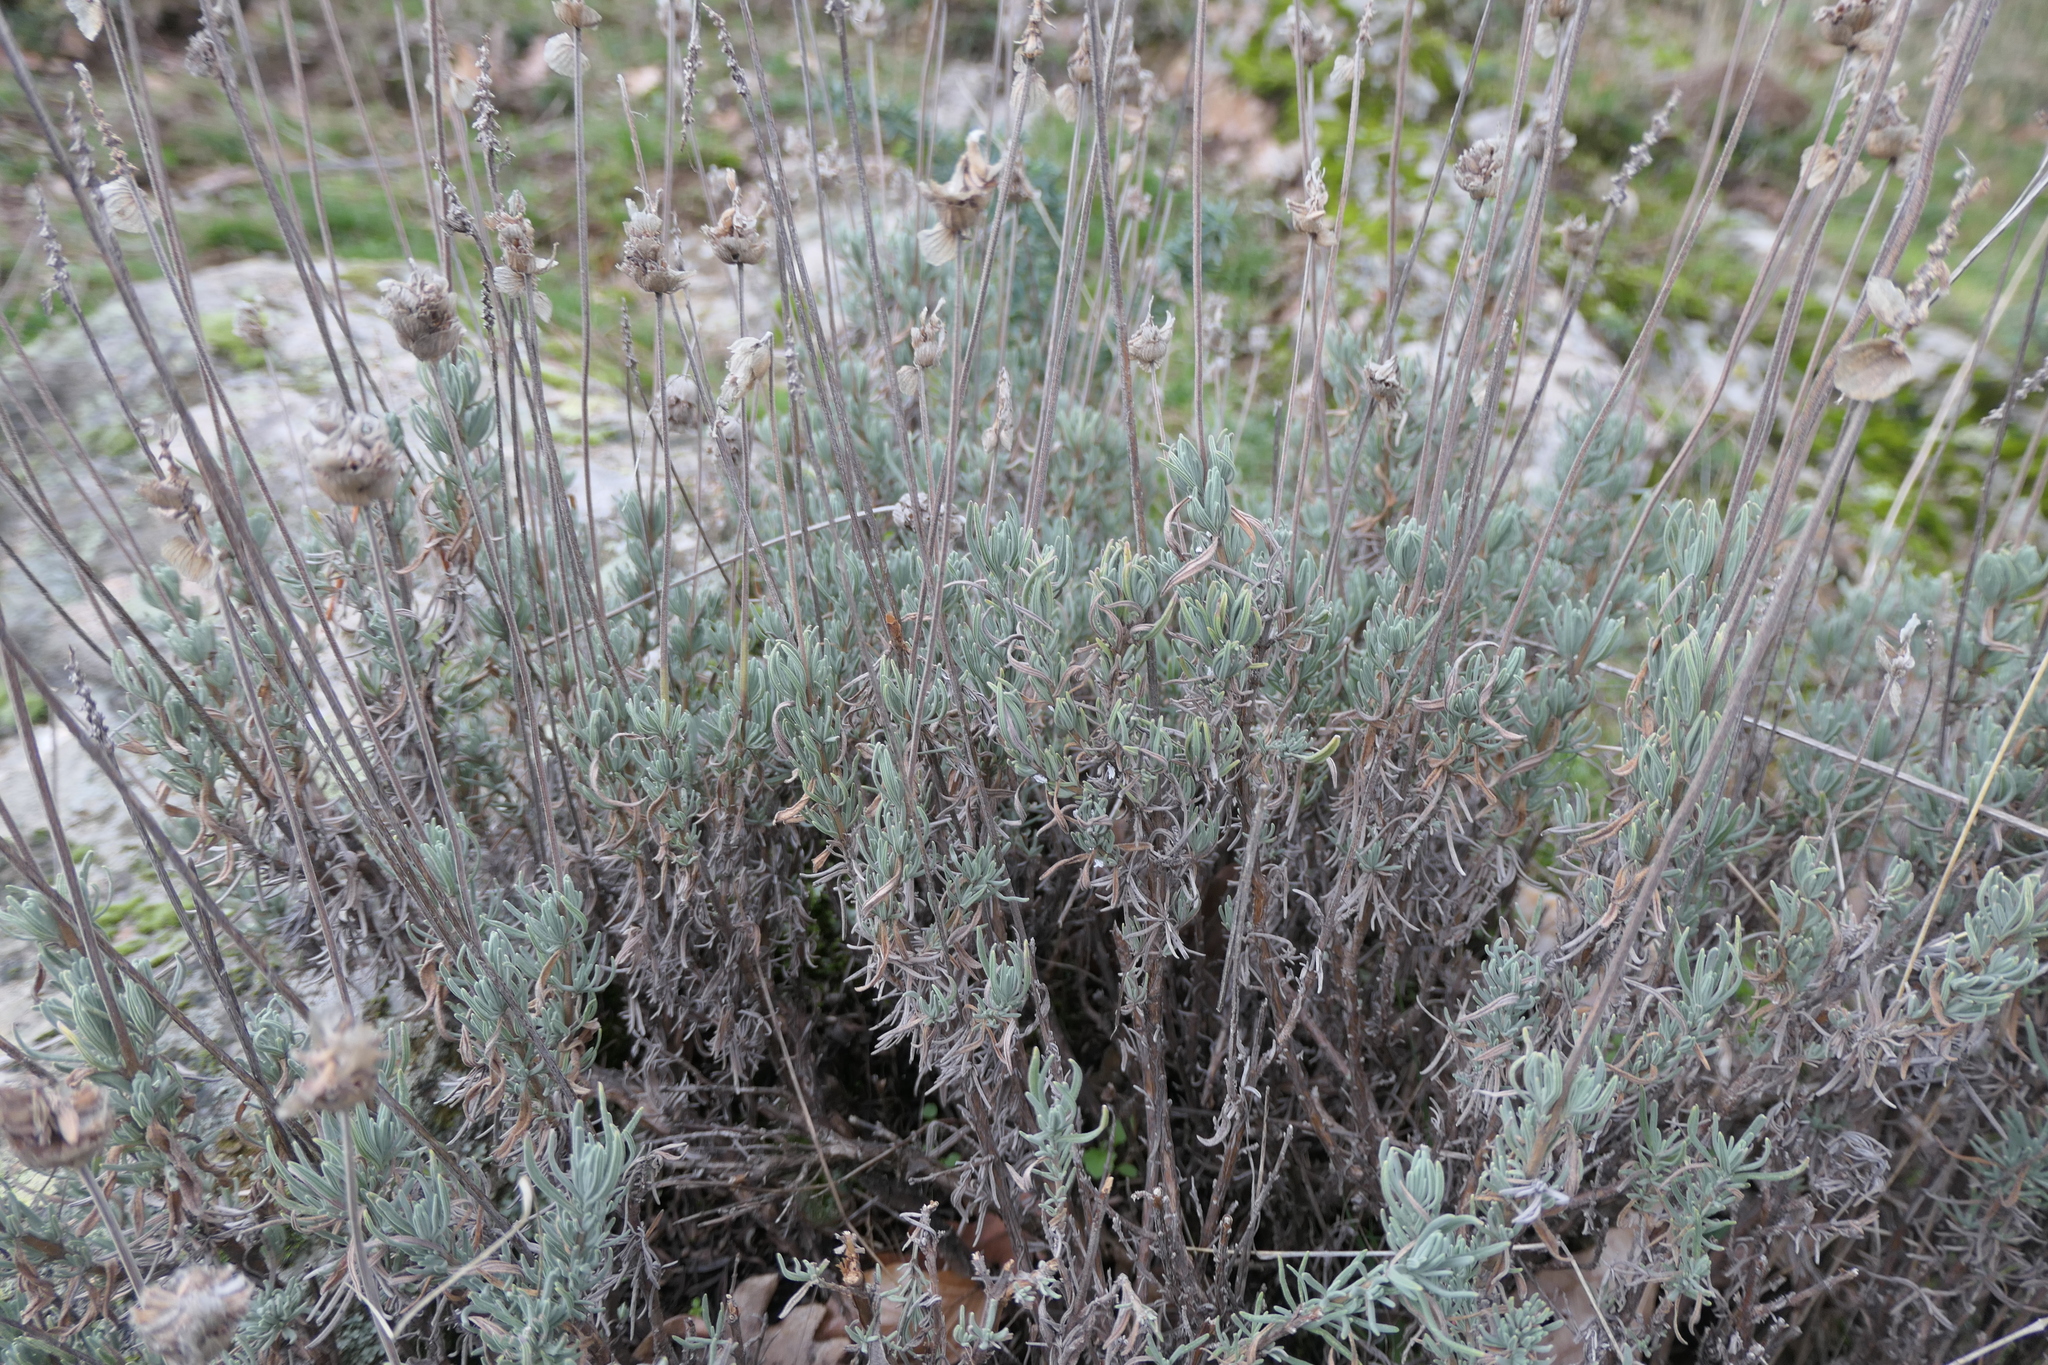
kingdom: Plantae
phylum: Tracheophyta
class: Magnoliopsida
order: Lamiales
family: Lamiaceae
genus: Lavandula
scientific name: Lavandula pedunculata
